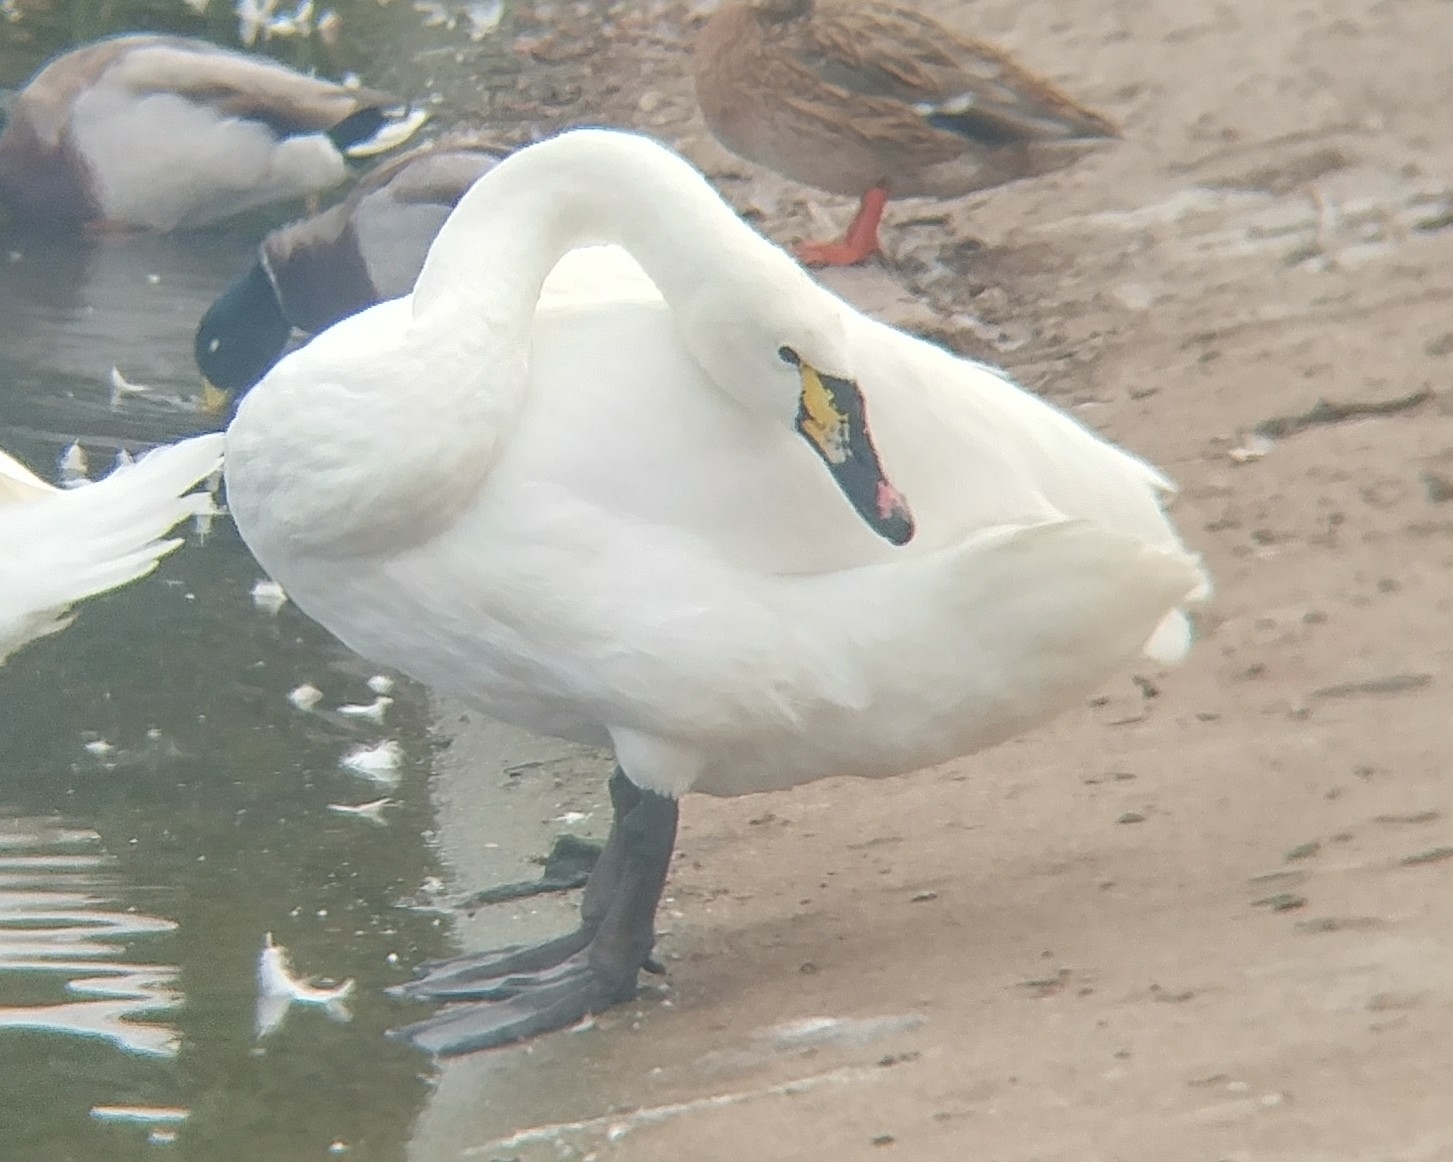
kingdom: Animalia
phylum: Chordata
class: Aves
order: Anseriformes
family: Anatidae
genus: Cygnus
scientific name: Cygnus
